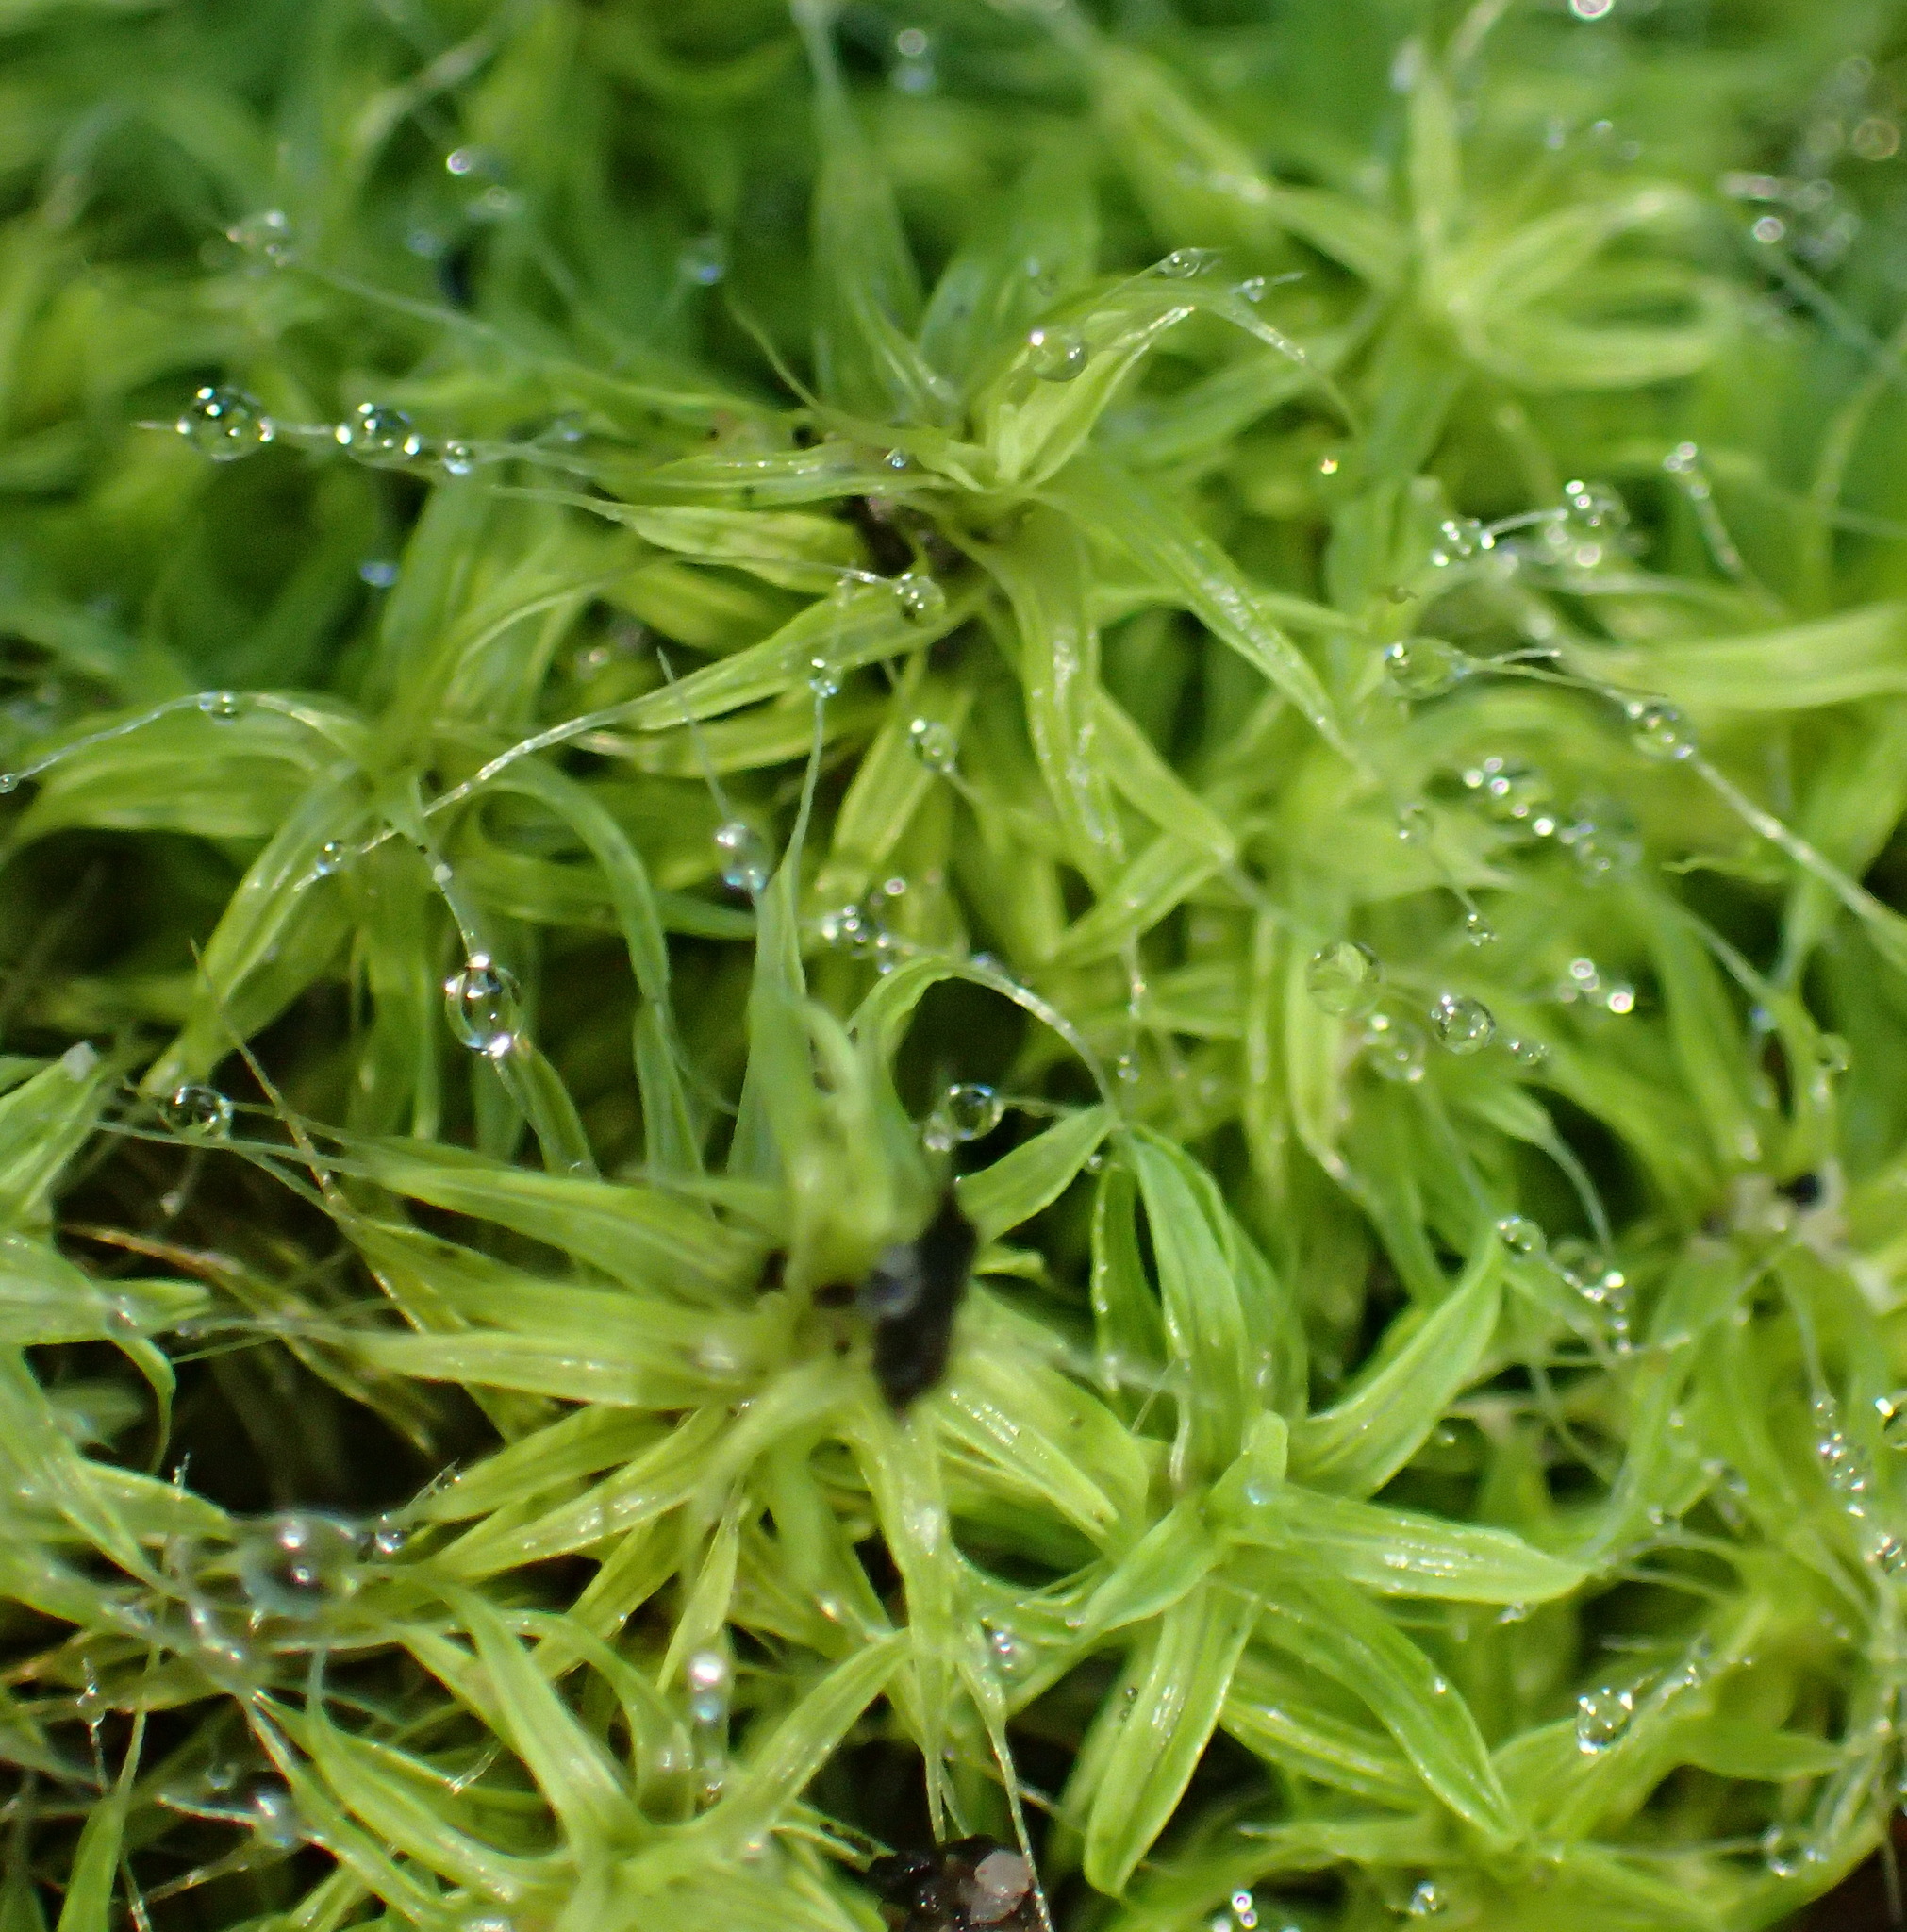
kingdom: Plantae
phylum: Bryophyta
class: Bryopsida
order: Pottiales
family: Pottiaceae
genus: Pseudocrossidium
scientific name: Pseudocrossidium crinitum
